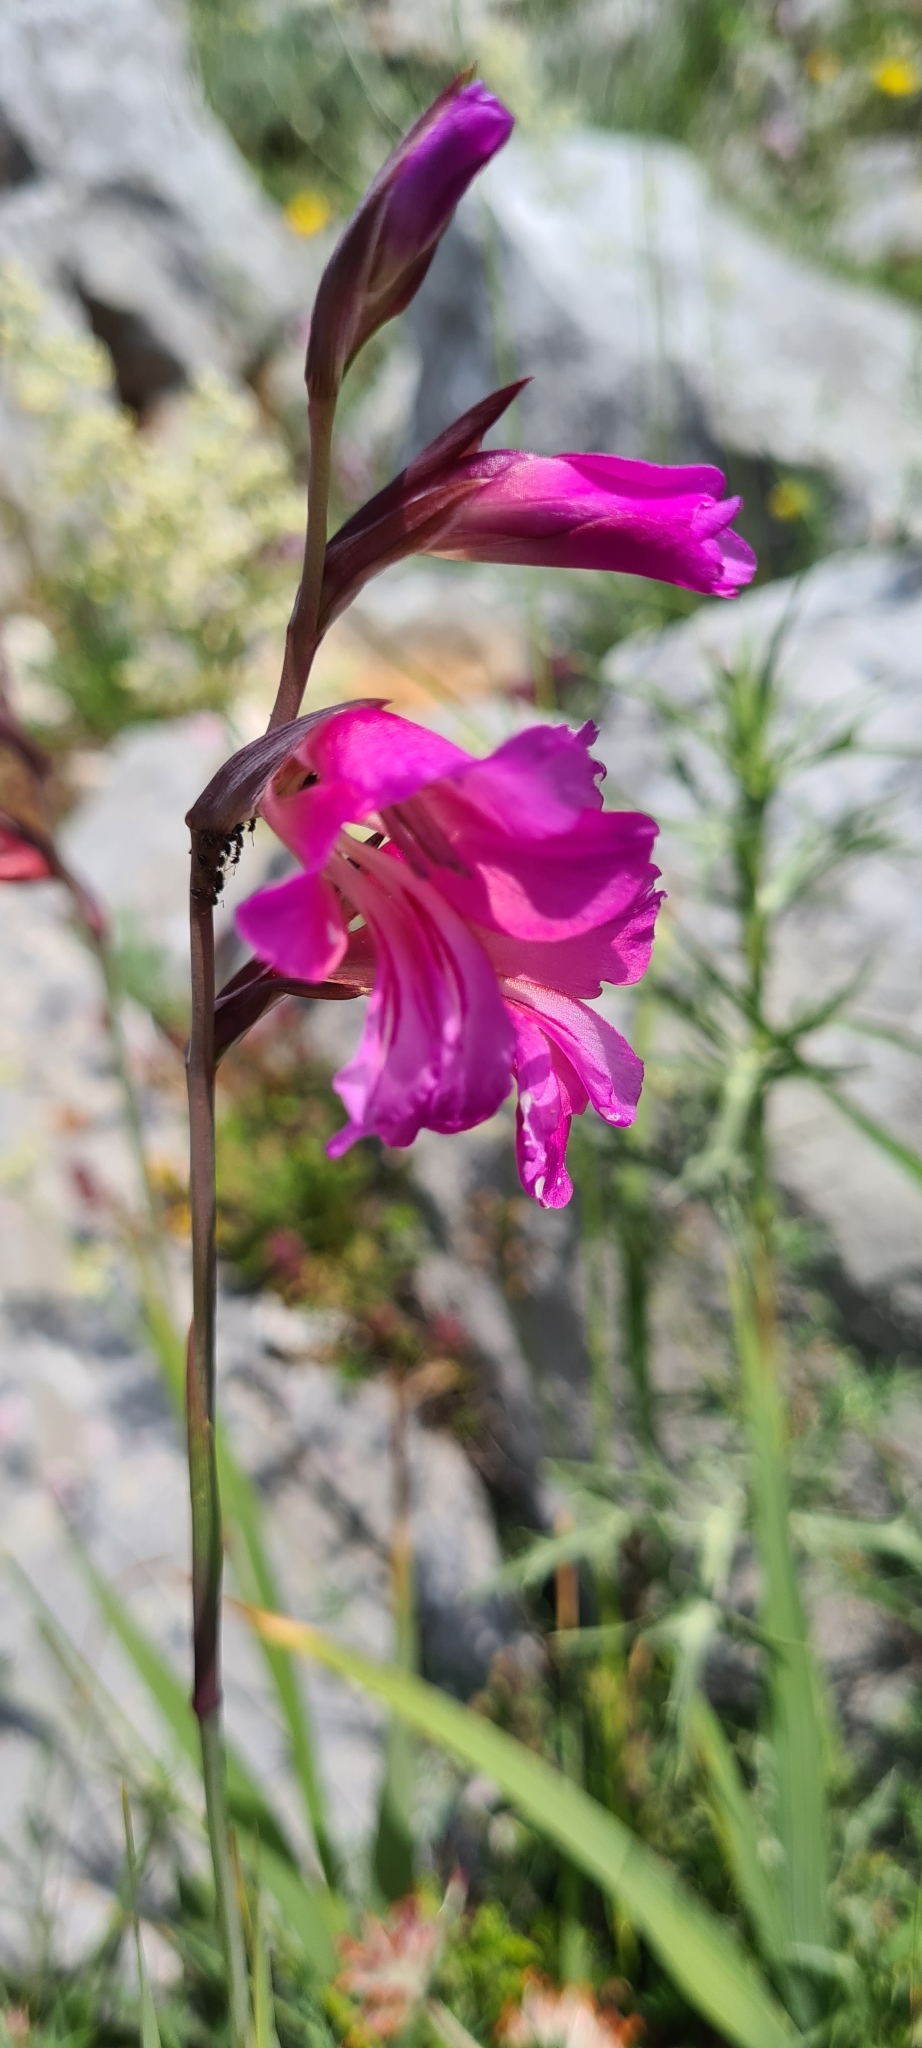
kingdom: Plantae
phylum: Tracheophyta
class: Liliopsida
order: Asparagales
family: Iridaceae
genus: Gladiolus
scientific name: Gladiolus italicus
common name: Field gladiolus
